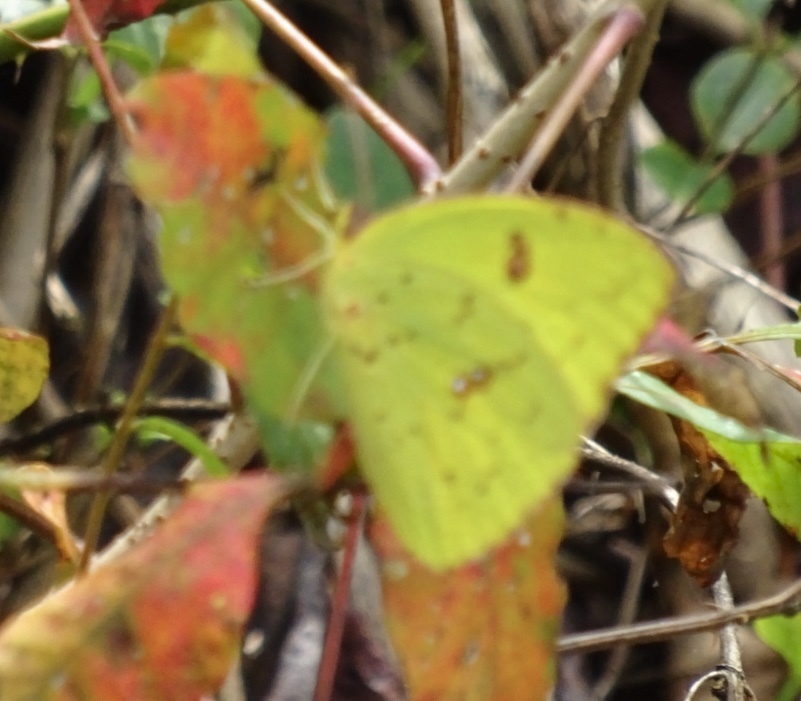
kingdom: Animalia
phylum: Arthropoda
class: Insecta
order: Lepidoptera
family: Pieridae
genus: Phoebis
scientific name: Phoebis sennae
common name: Cloudless sulphur
